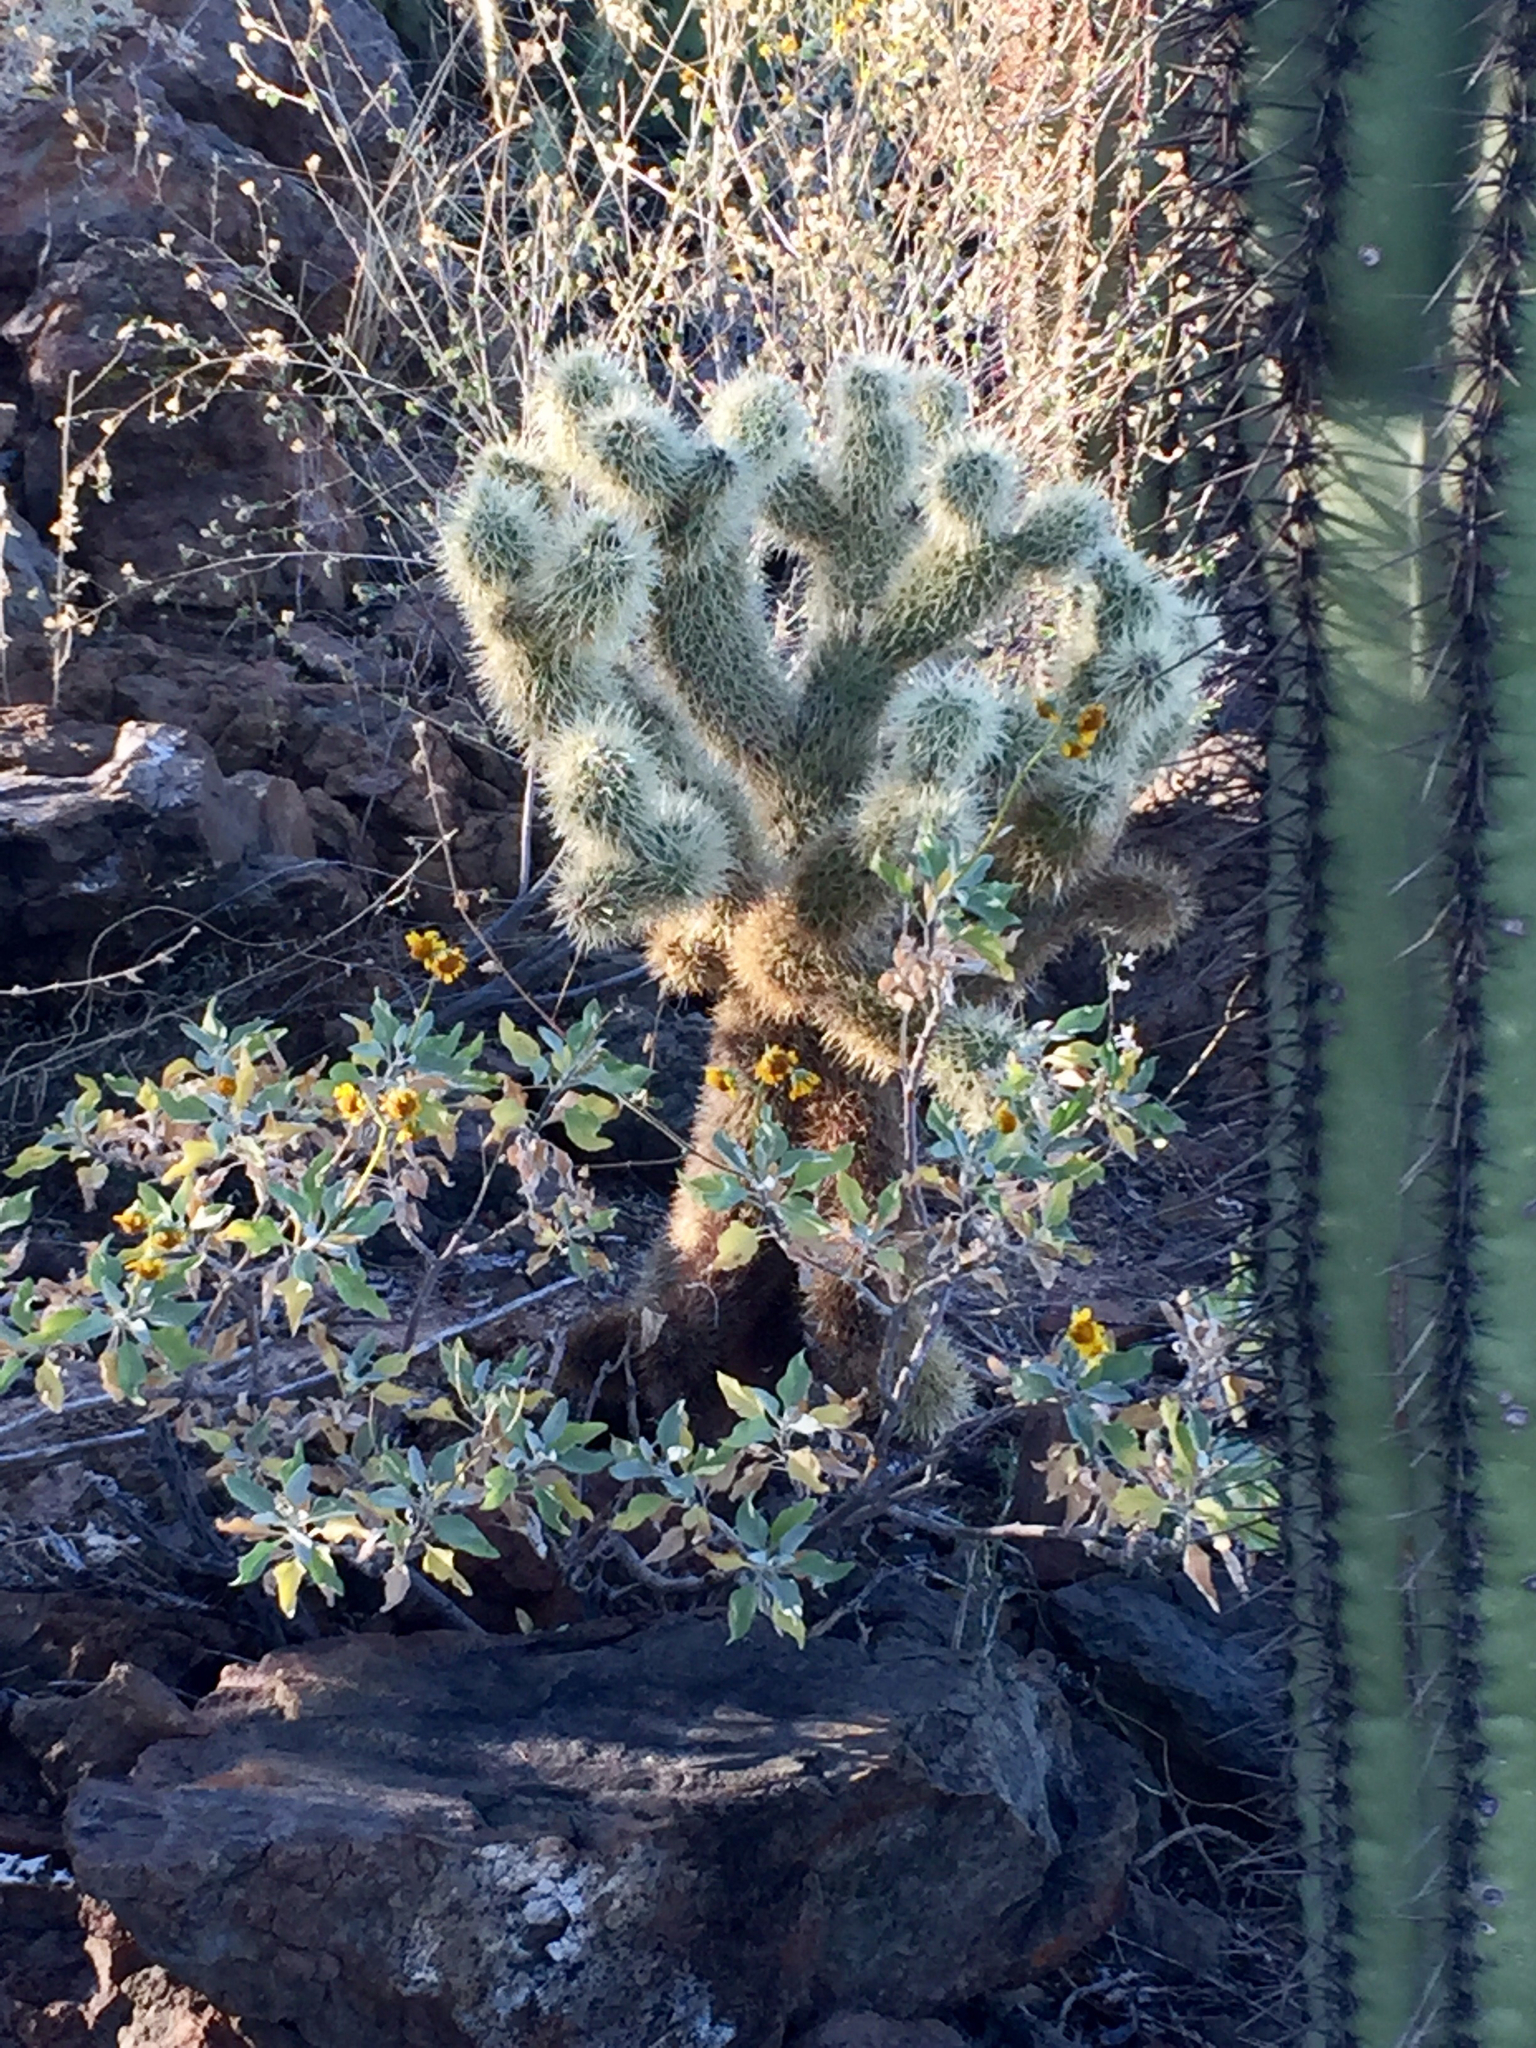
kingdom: Plantae
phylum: Tracheophyta
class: Magnoliopsida
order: Asterales
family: Asteraceae
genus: Encelia
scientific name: Encelia farinosa
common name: Brittlebush
